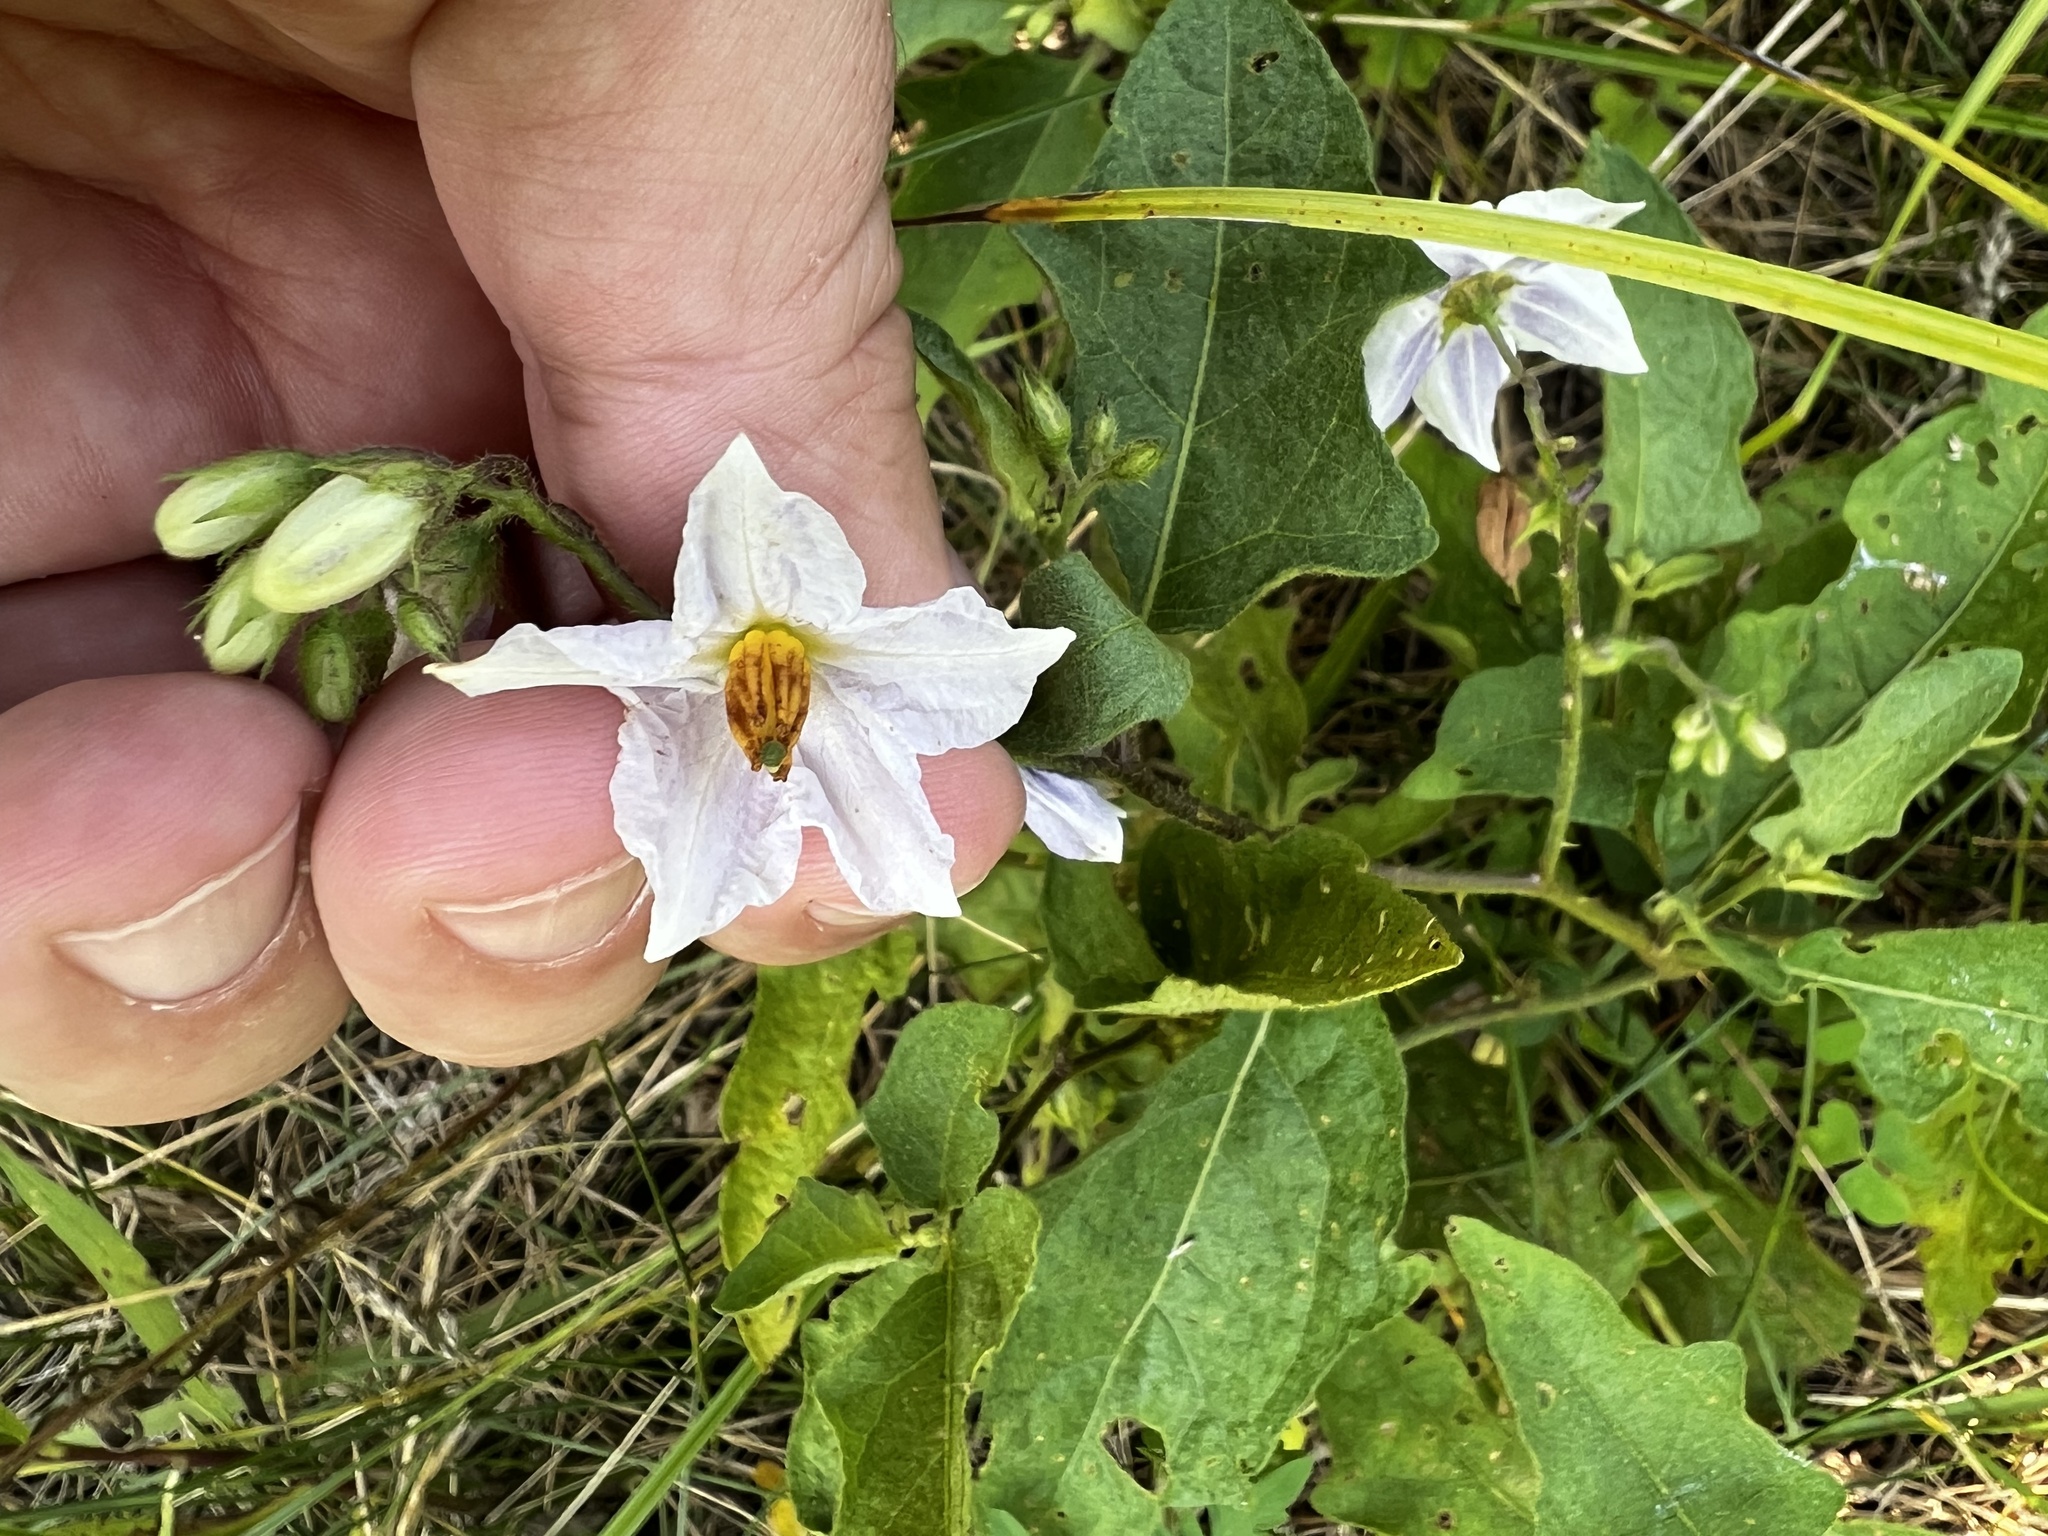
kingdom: Plantae
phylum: Tracheophyta
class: Magnoliopsida
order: Solanales
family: Solanaceae
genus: Solanum
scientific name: Solanum carolinense
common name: Horse-nettle
